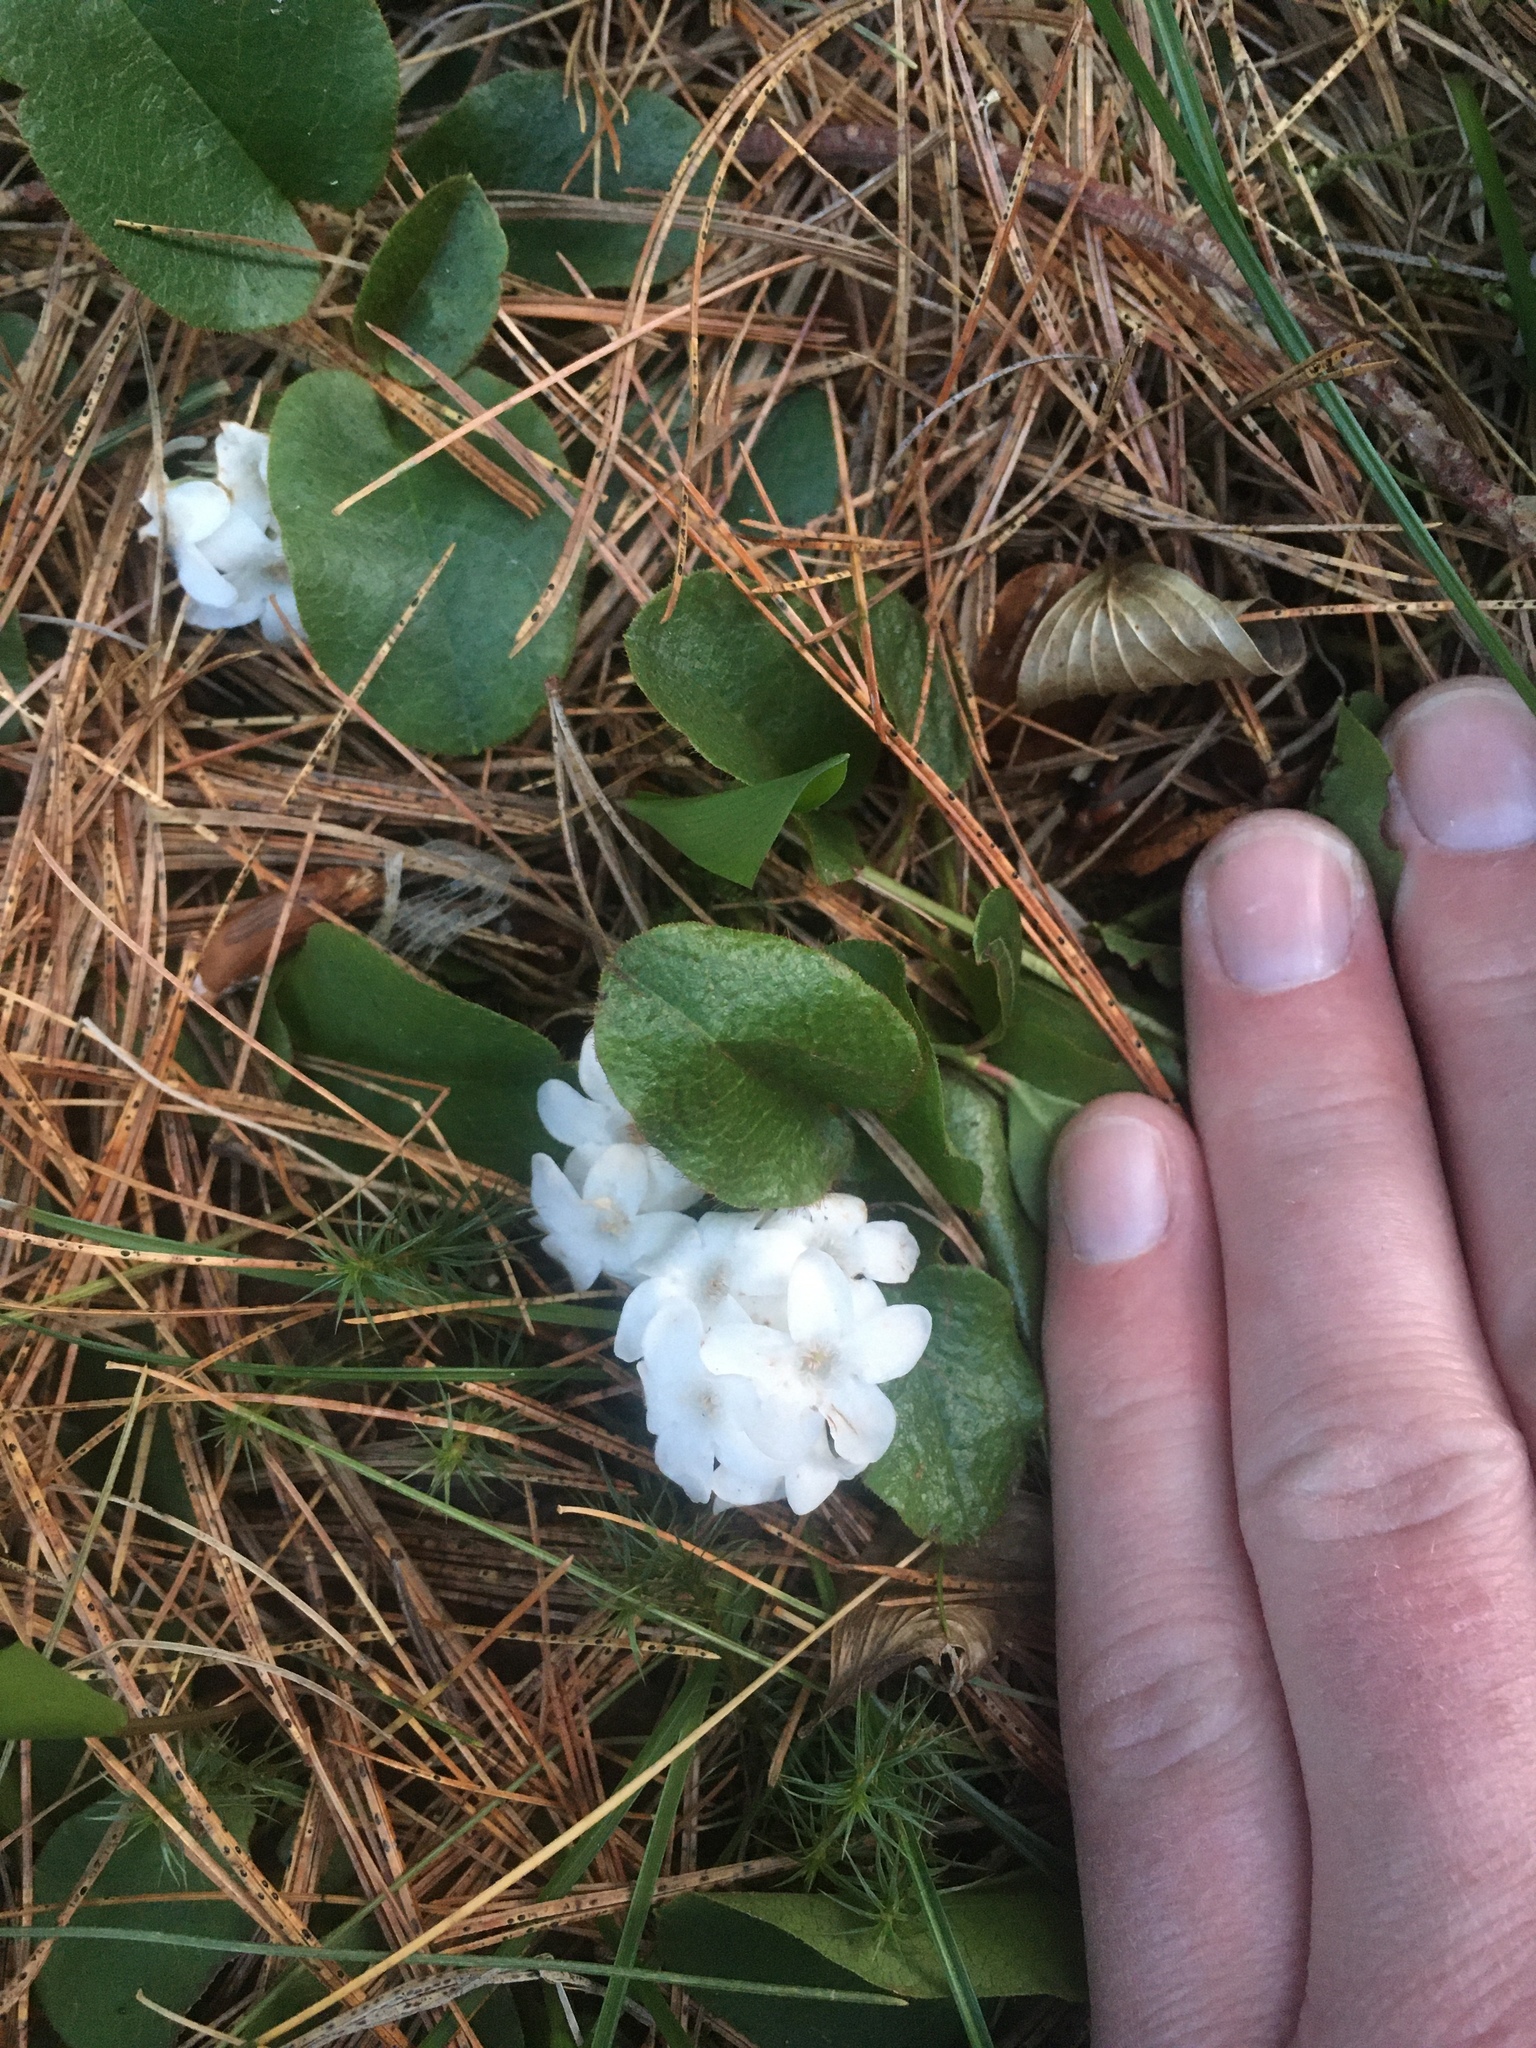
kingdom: Plantae
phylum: Tracheophyta
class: Magnoliopsida
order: Ericales
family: Ericaceae
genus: Epigaea
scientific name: Epigaea repens
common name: Gravelroot
